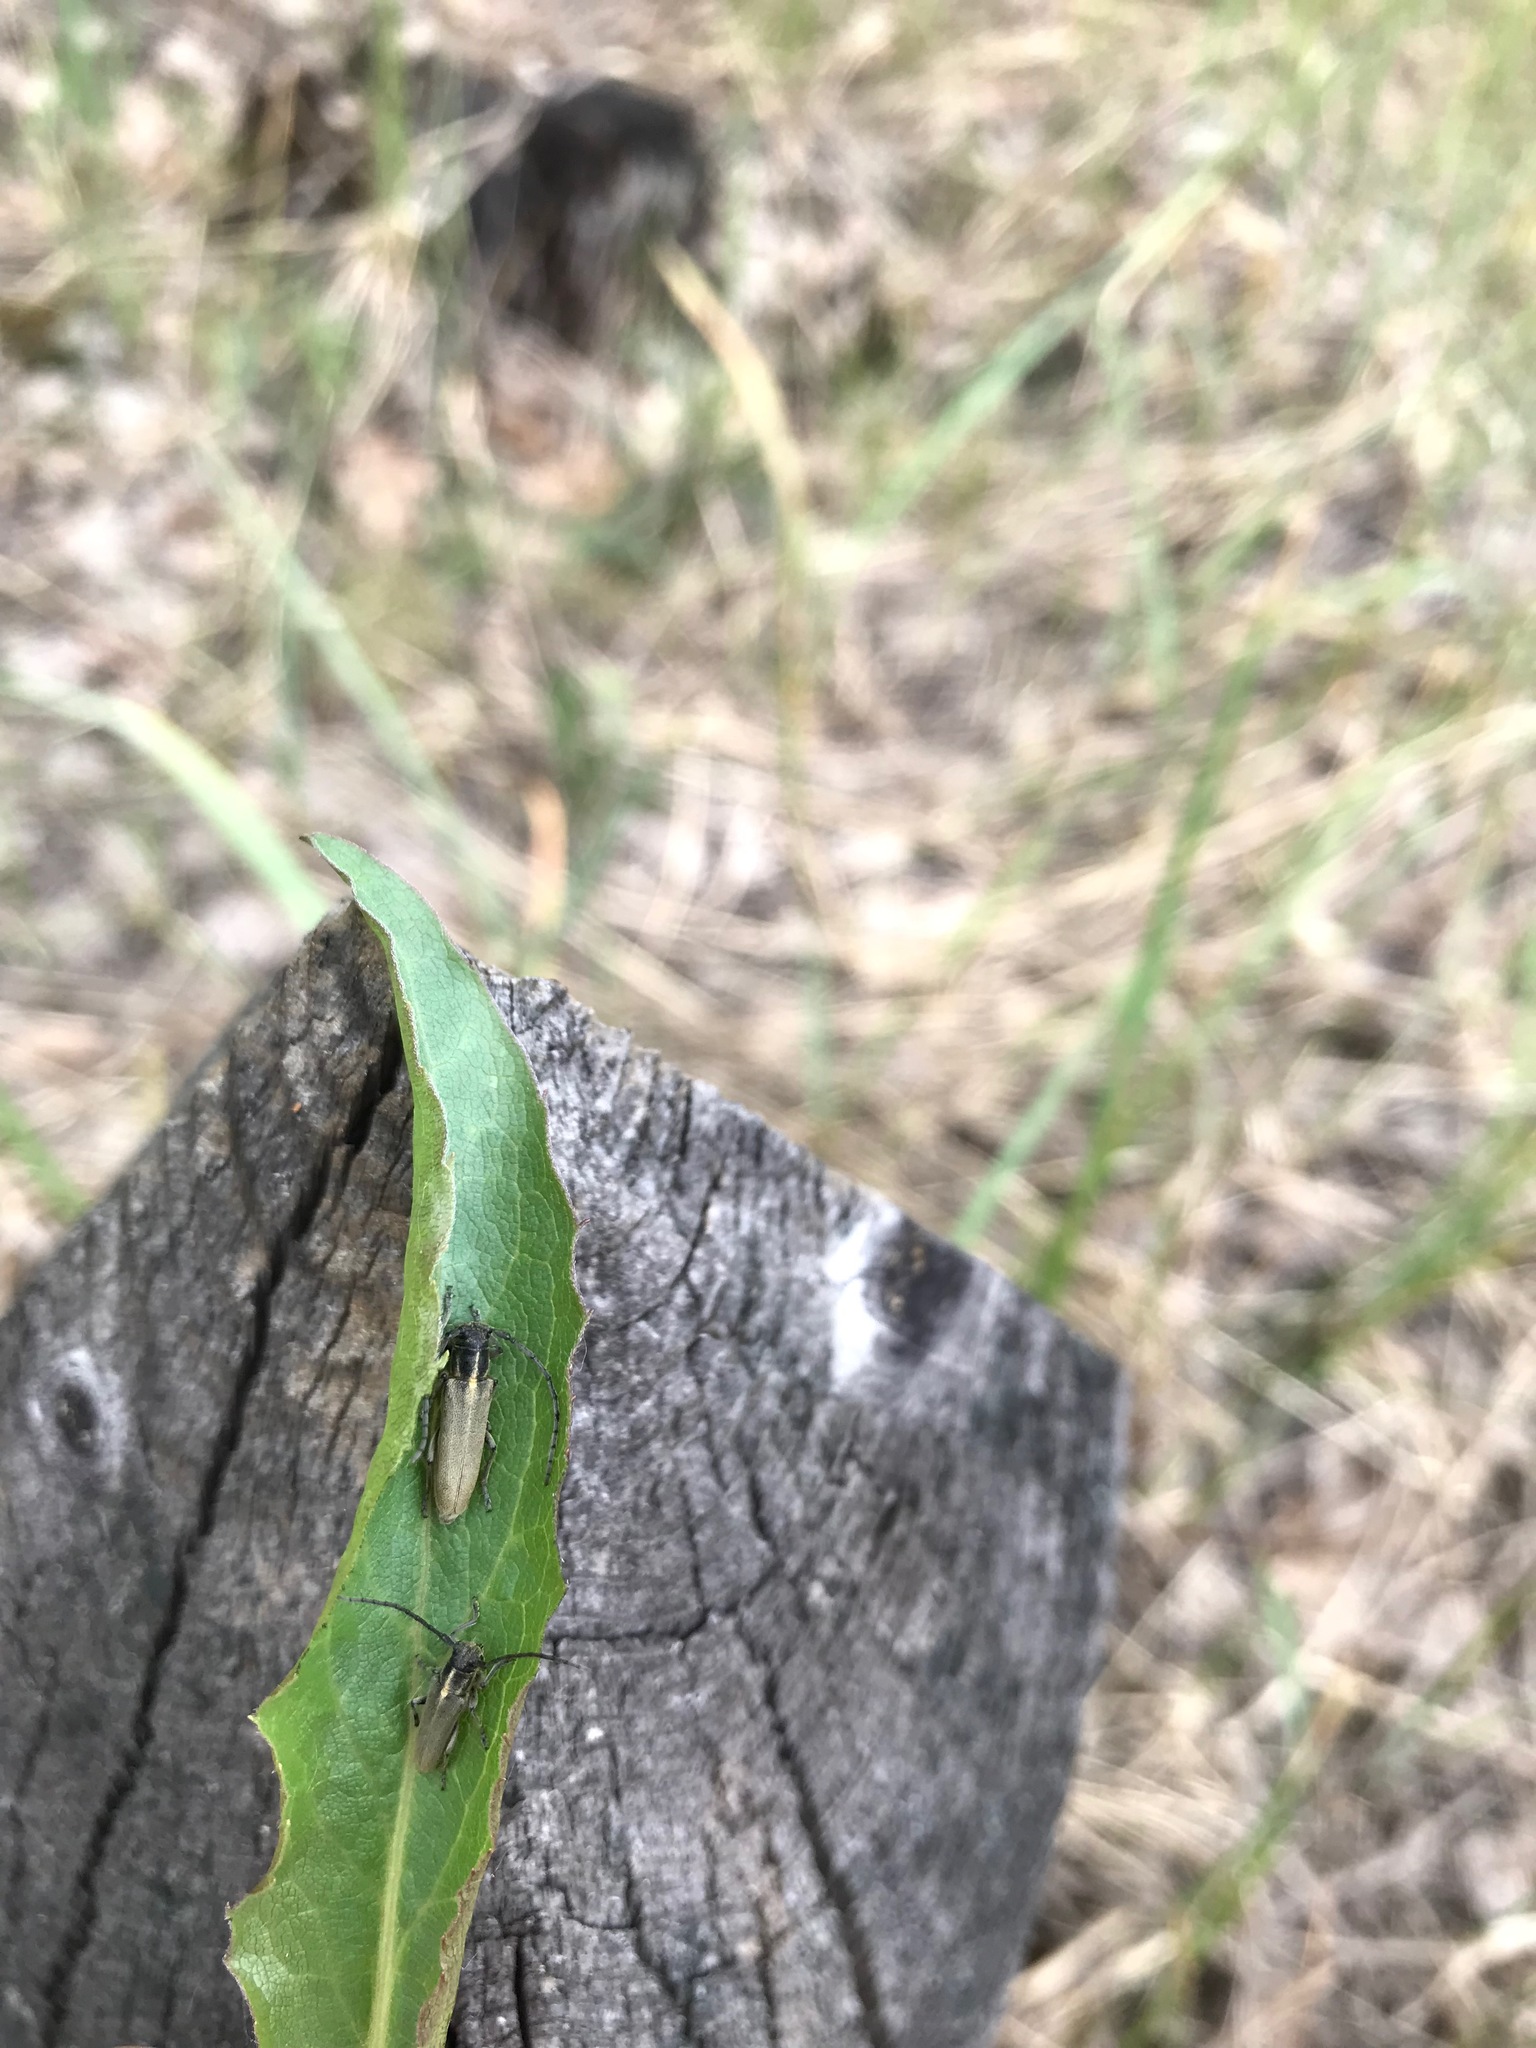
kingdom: Animalia
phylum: Arthropoda
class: Insecta
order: Coleoptera
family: Cerambycidae
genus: Phytoecia
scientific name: Phytoecia nigricornis
